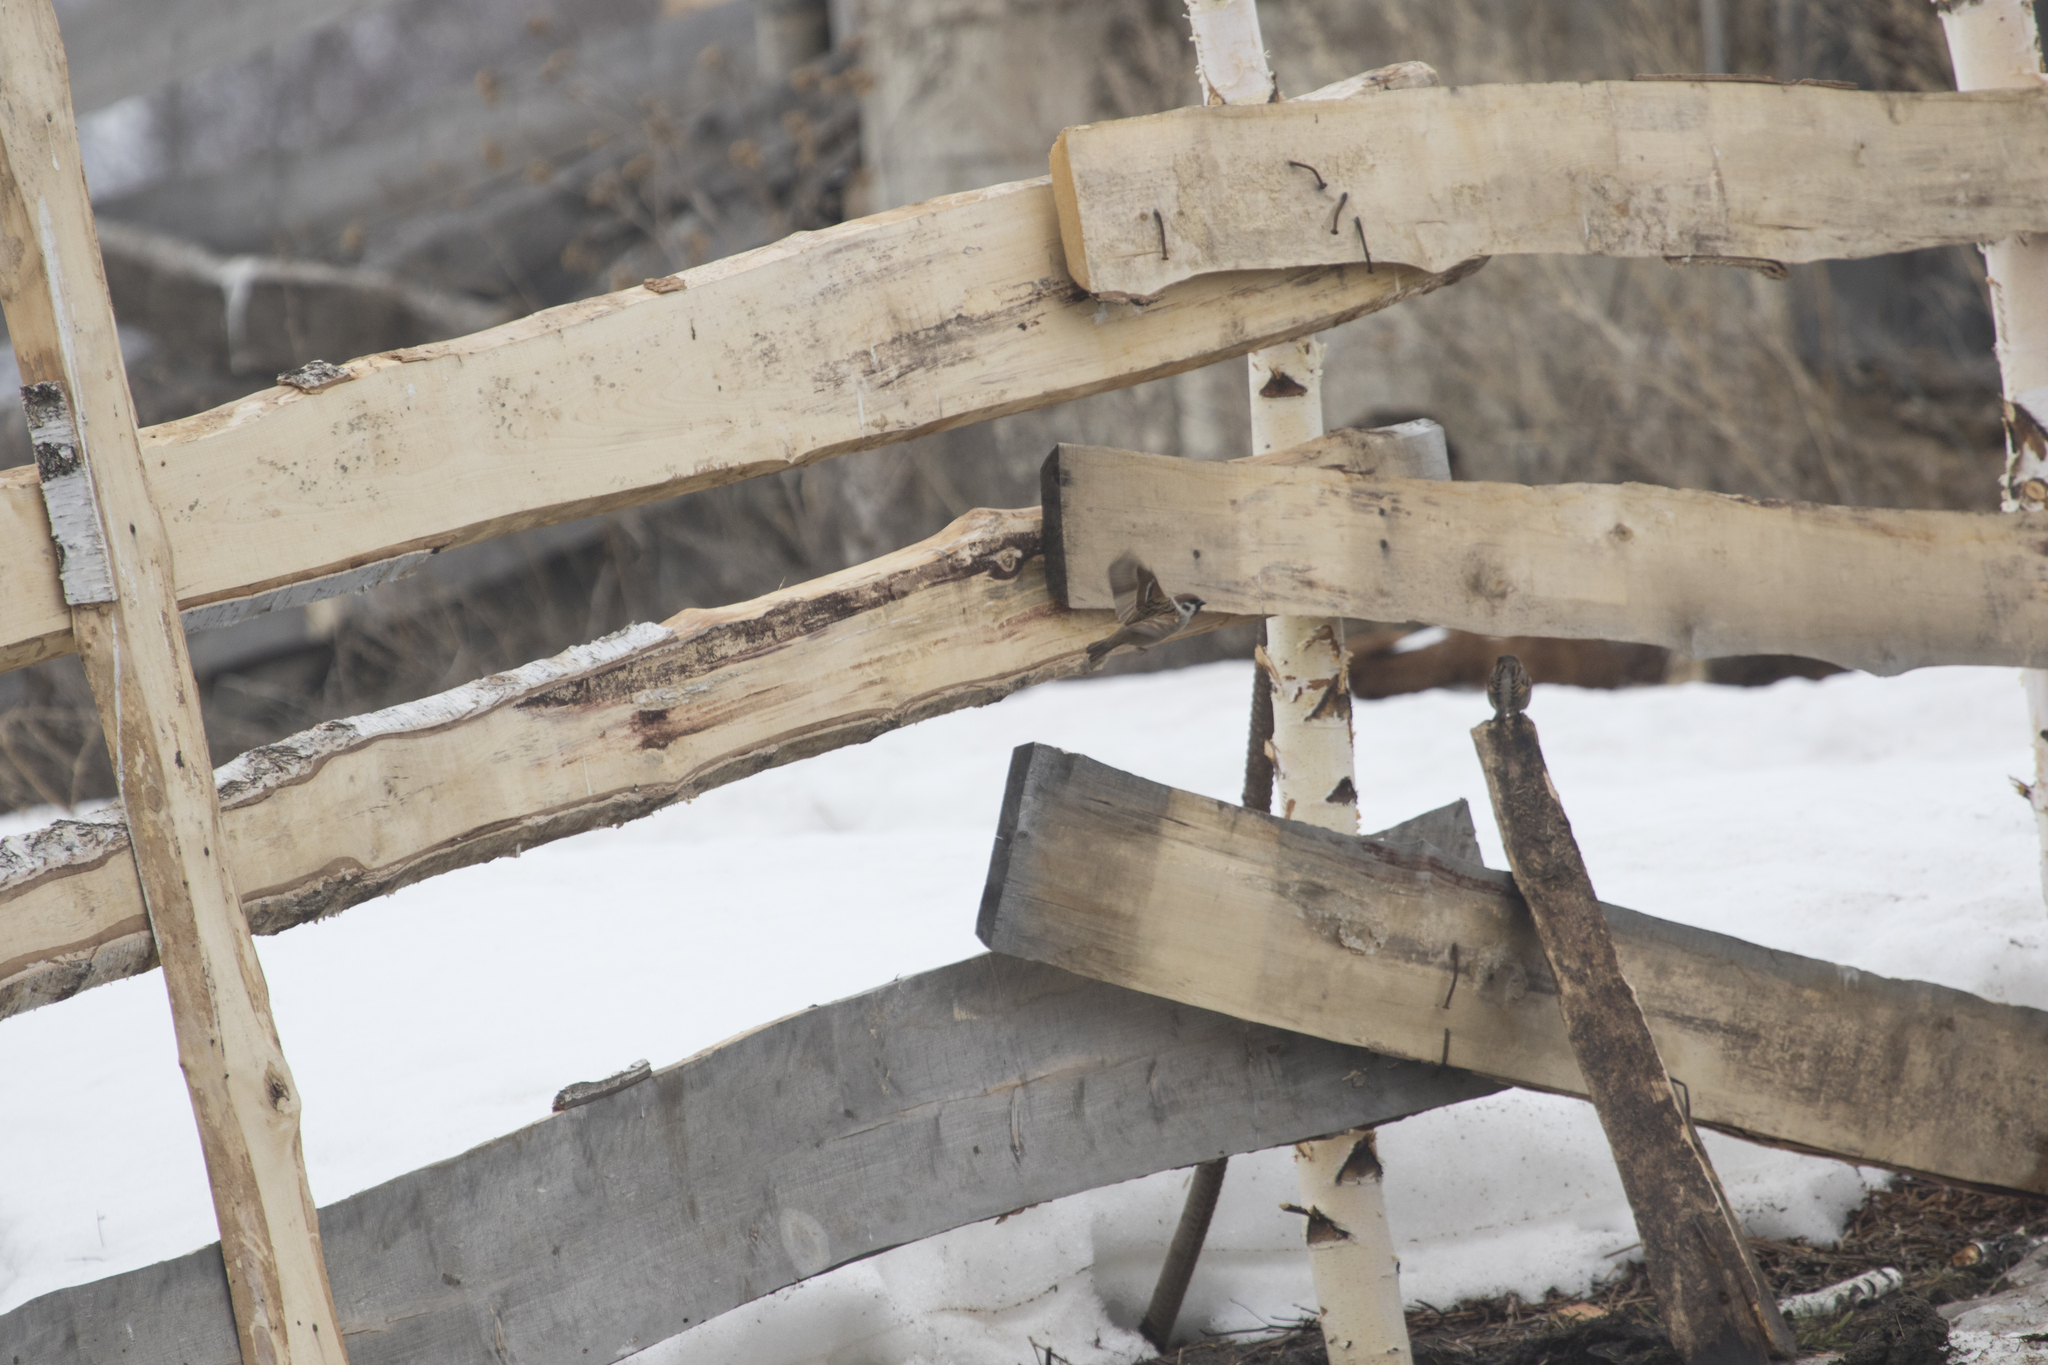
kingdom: Animalia
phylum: Chordata
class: Aves
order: Passeriformes
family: Passeridae
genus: Passer
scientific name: Passer montanus
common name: Eurasian tree sparrow
